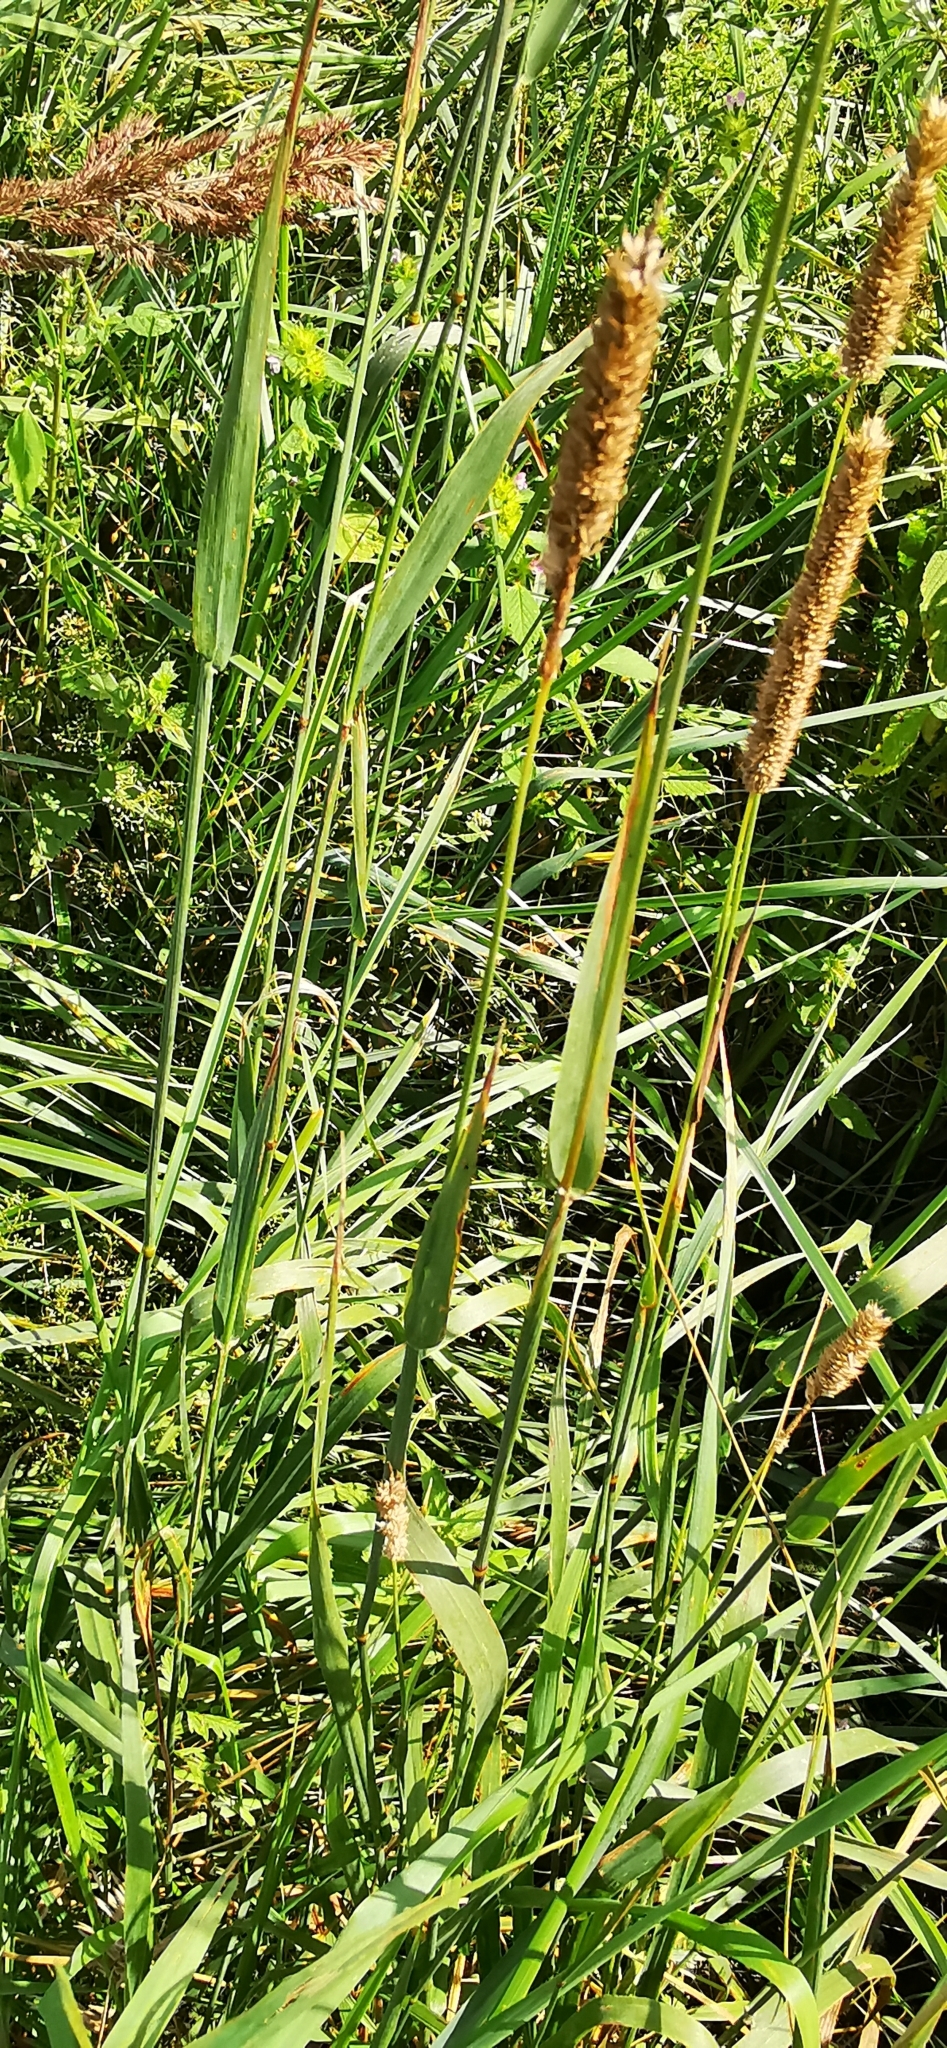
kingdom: Plantae
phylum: Tracheophyta
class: Liliopsida
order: Poales
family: Poaceae
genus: Phleum
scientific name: Phleum pratense
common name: Timothy grass
